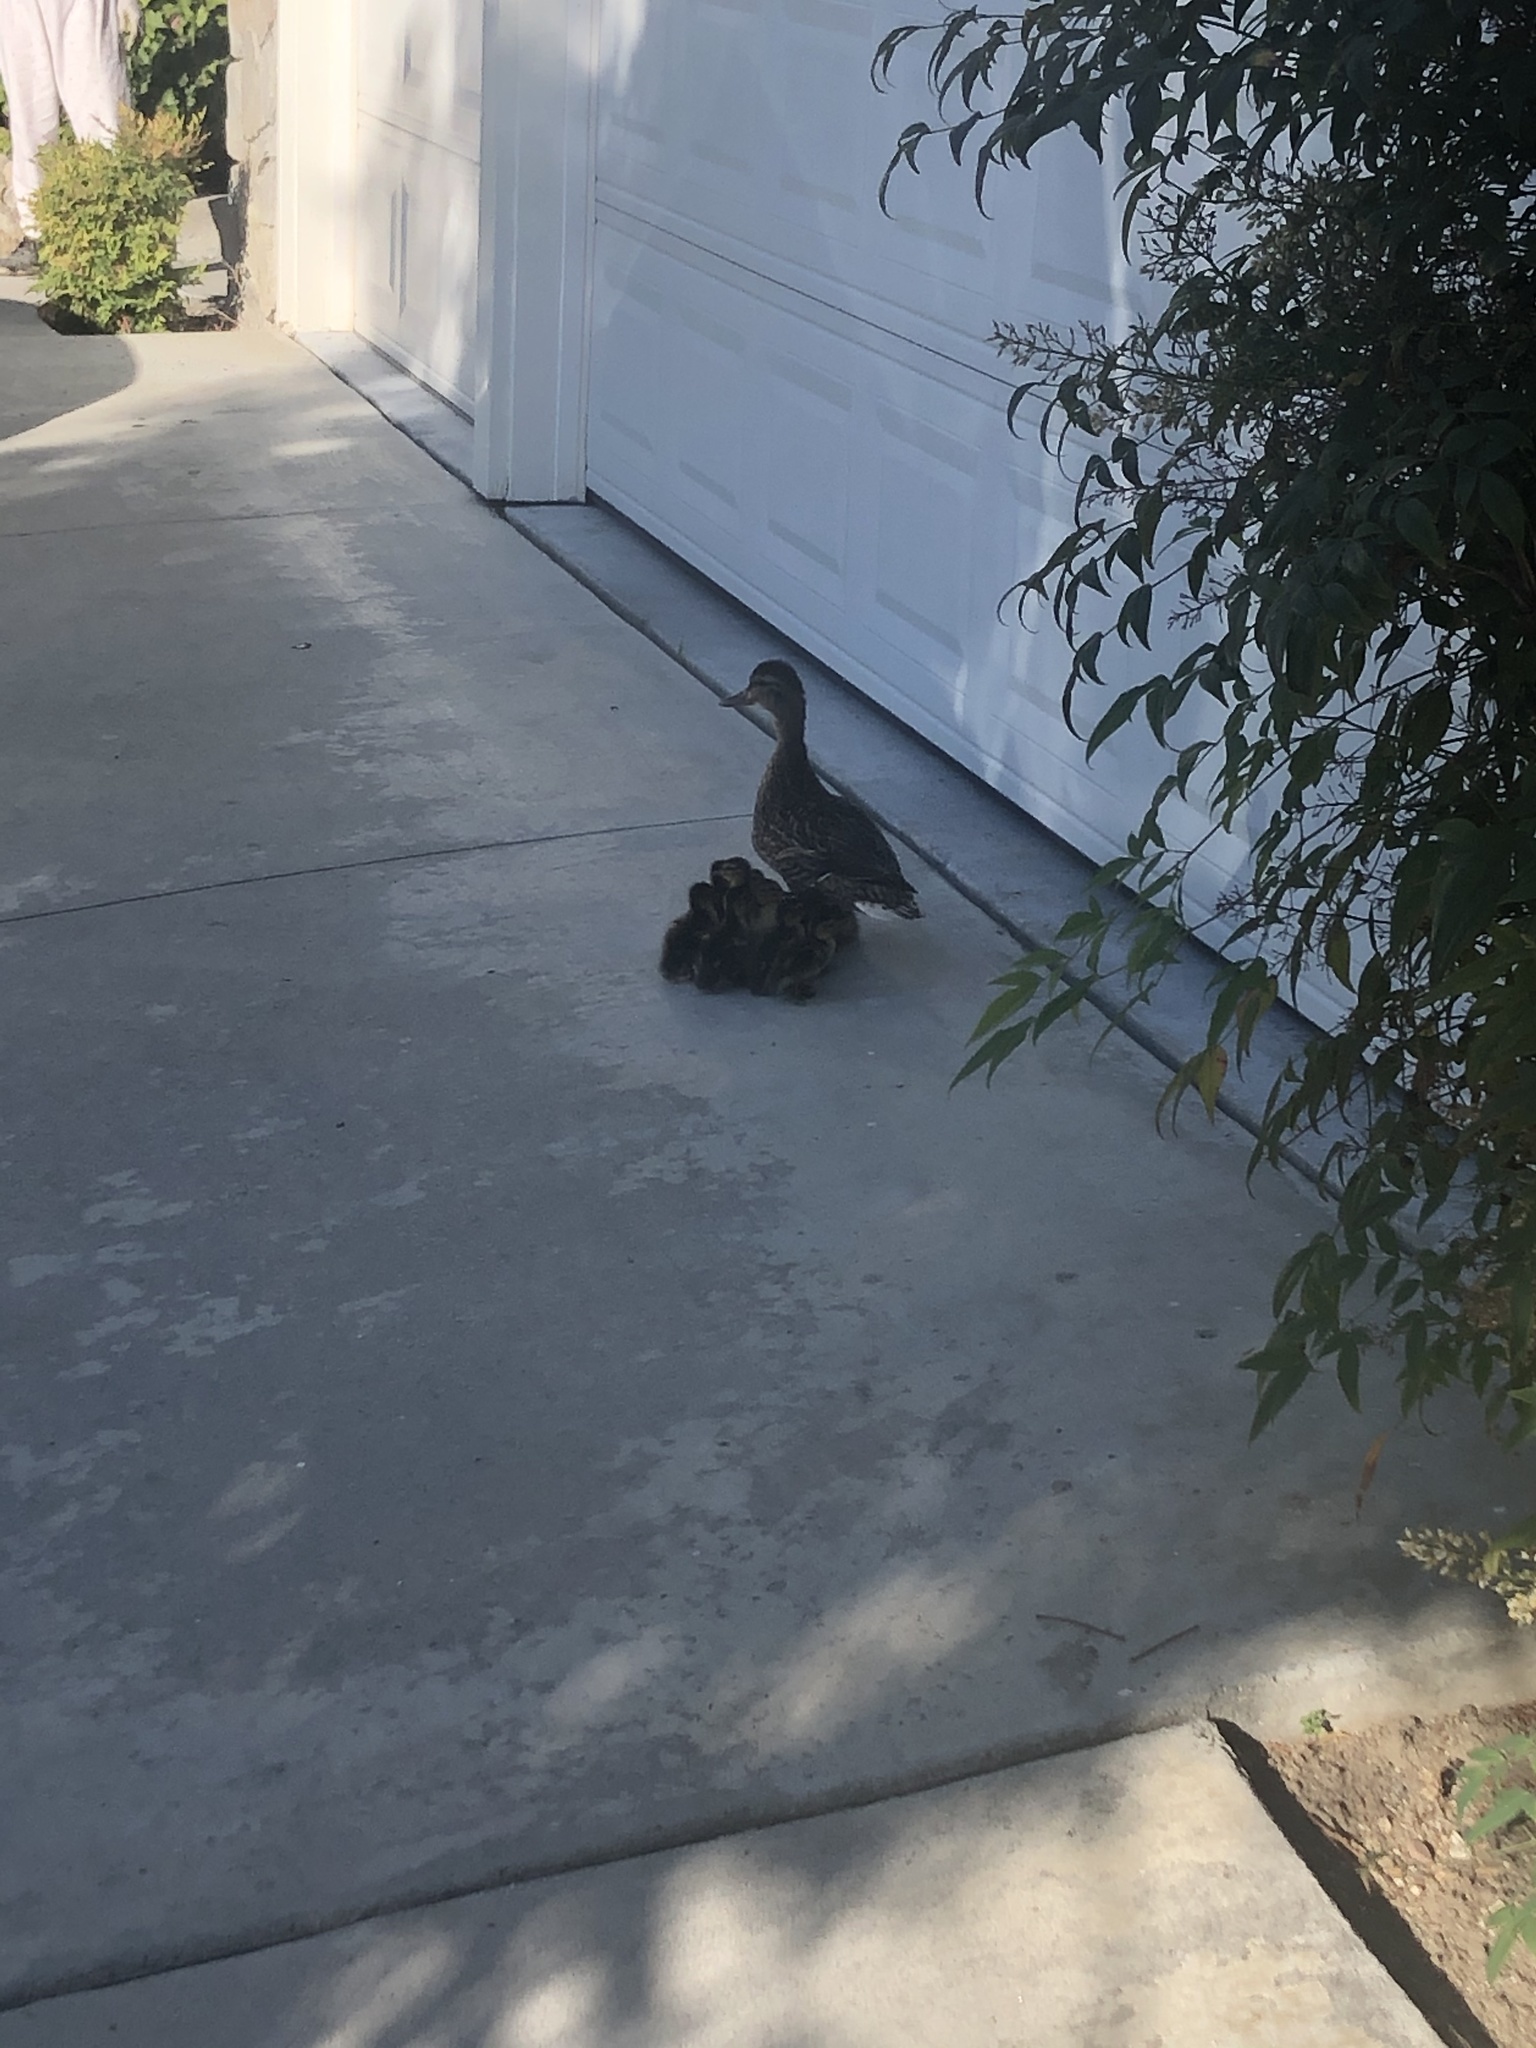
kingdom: Animalia
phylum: Chordata
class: Aves
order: Anseriformes
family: Anatidae
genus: Anas
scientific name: Anas platyrhynchos
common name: Mallard
